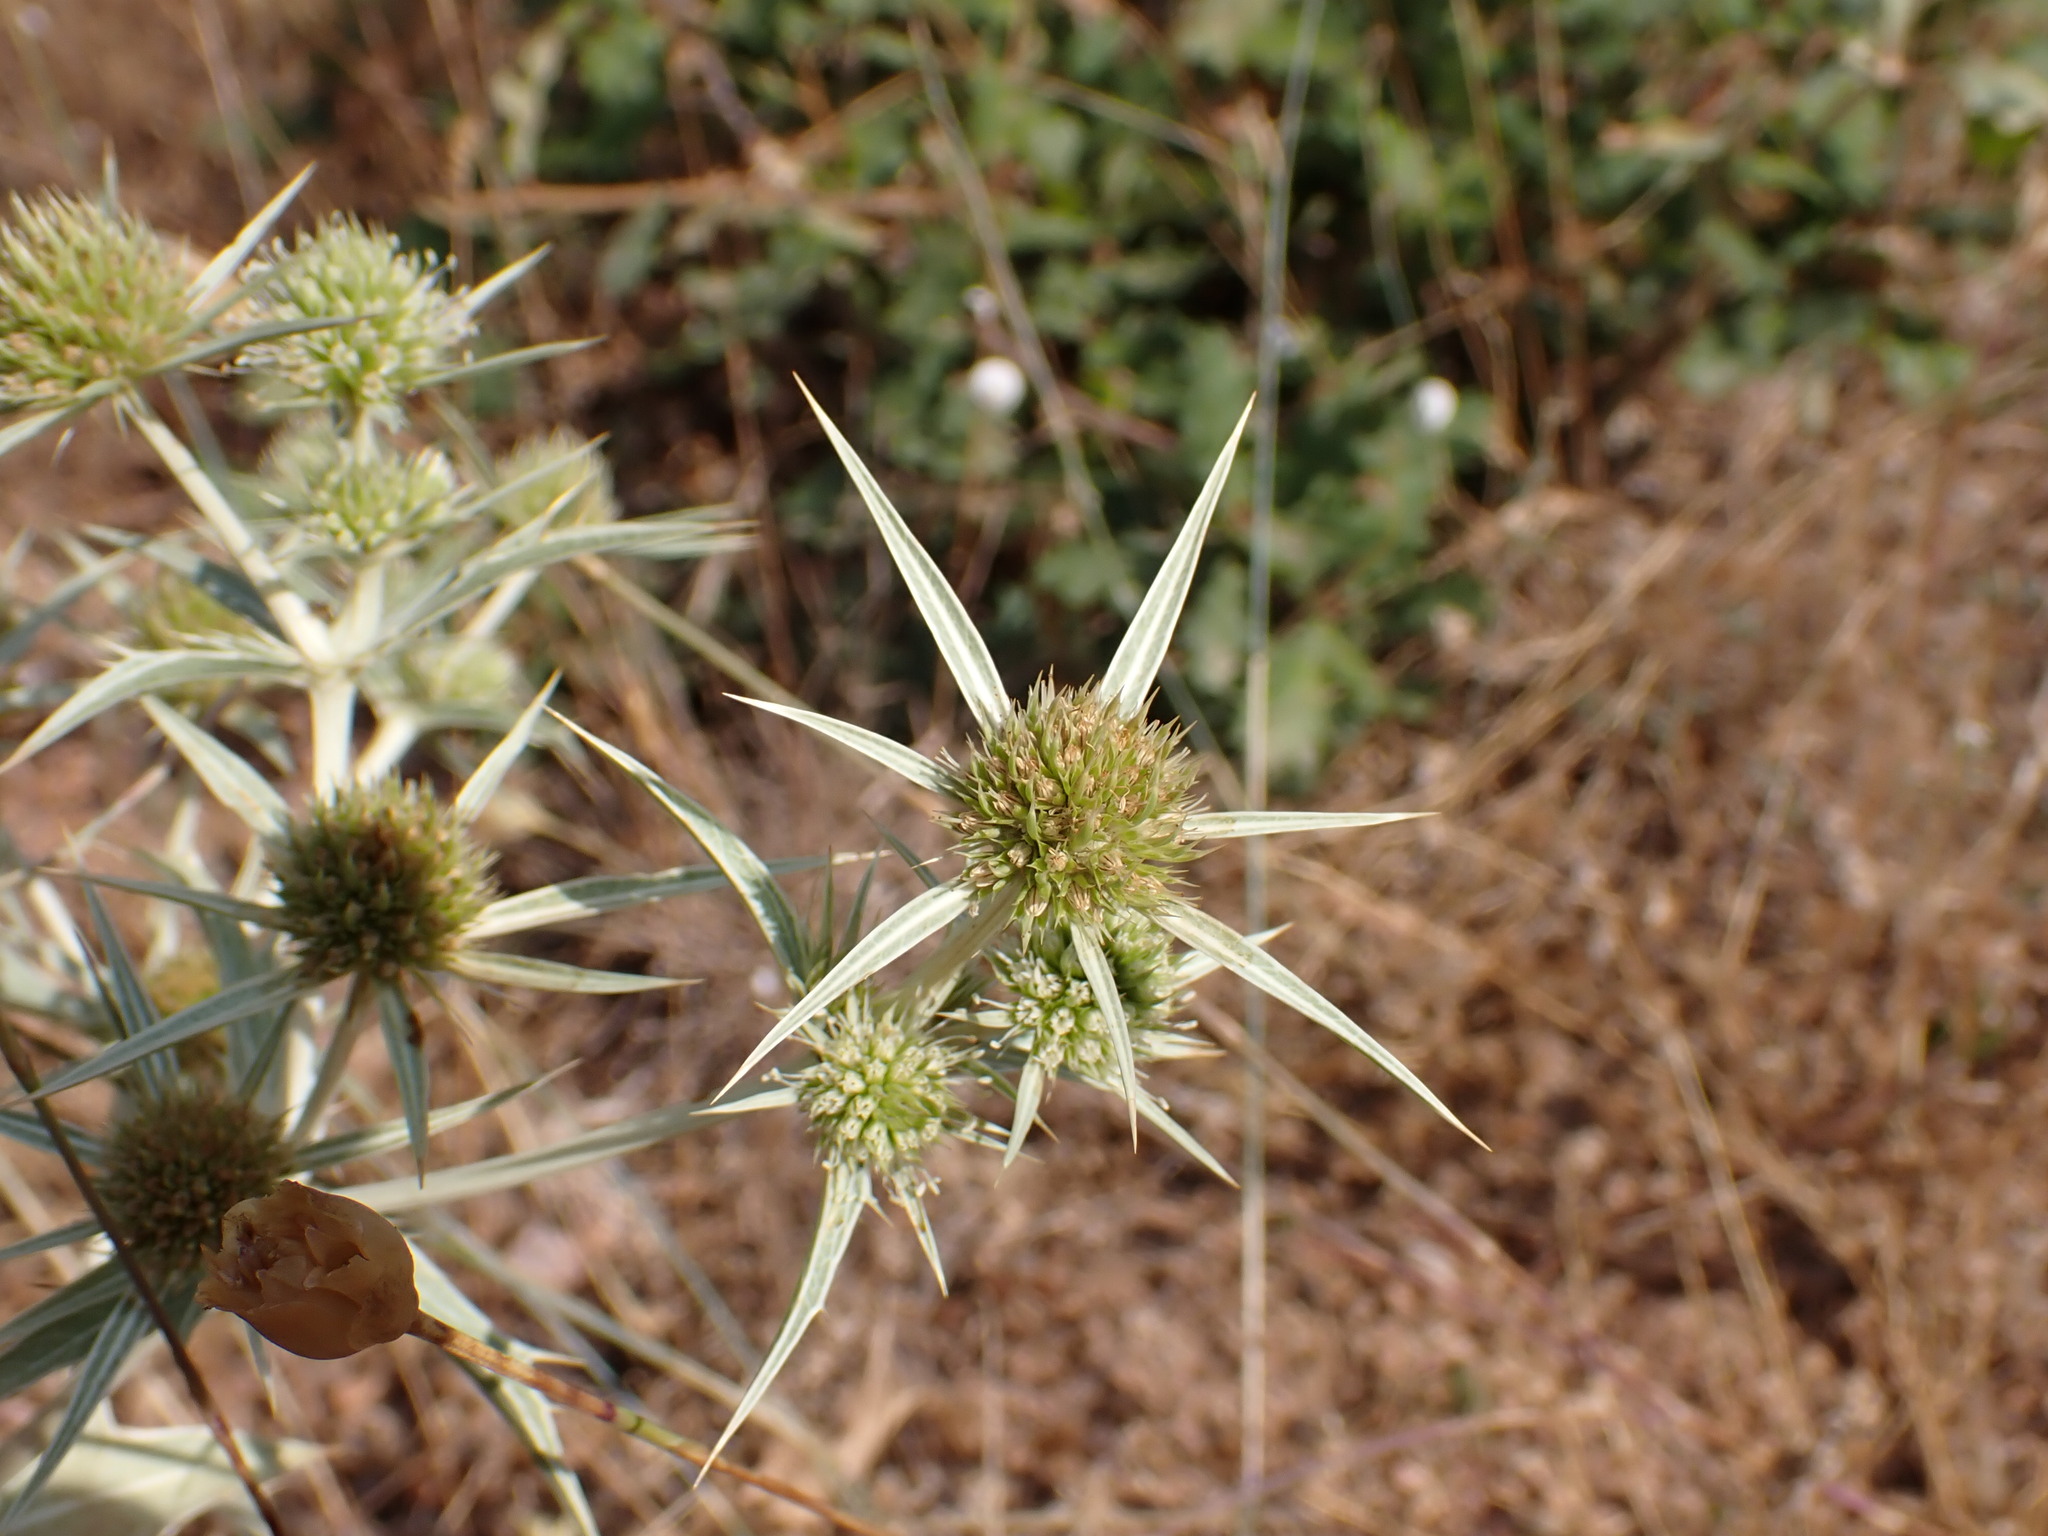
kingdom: Plantae
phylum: Tracheophyta
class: Magnoliopsida
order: Apiales
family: Apiaceae
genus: Eryngium
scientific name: Eryngium campestre
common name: Field eryngo
